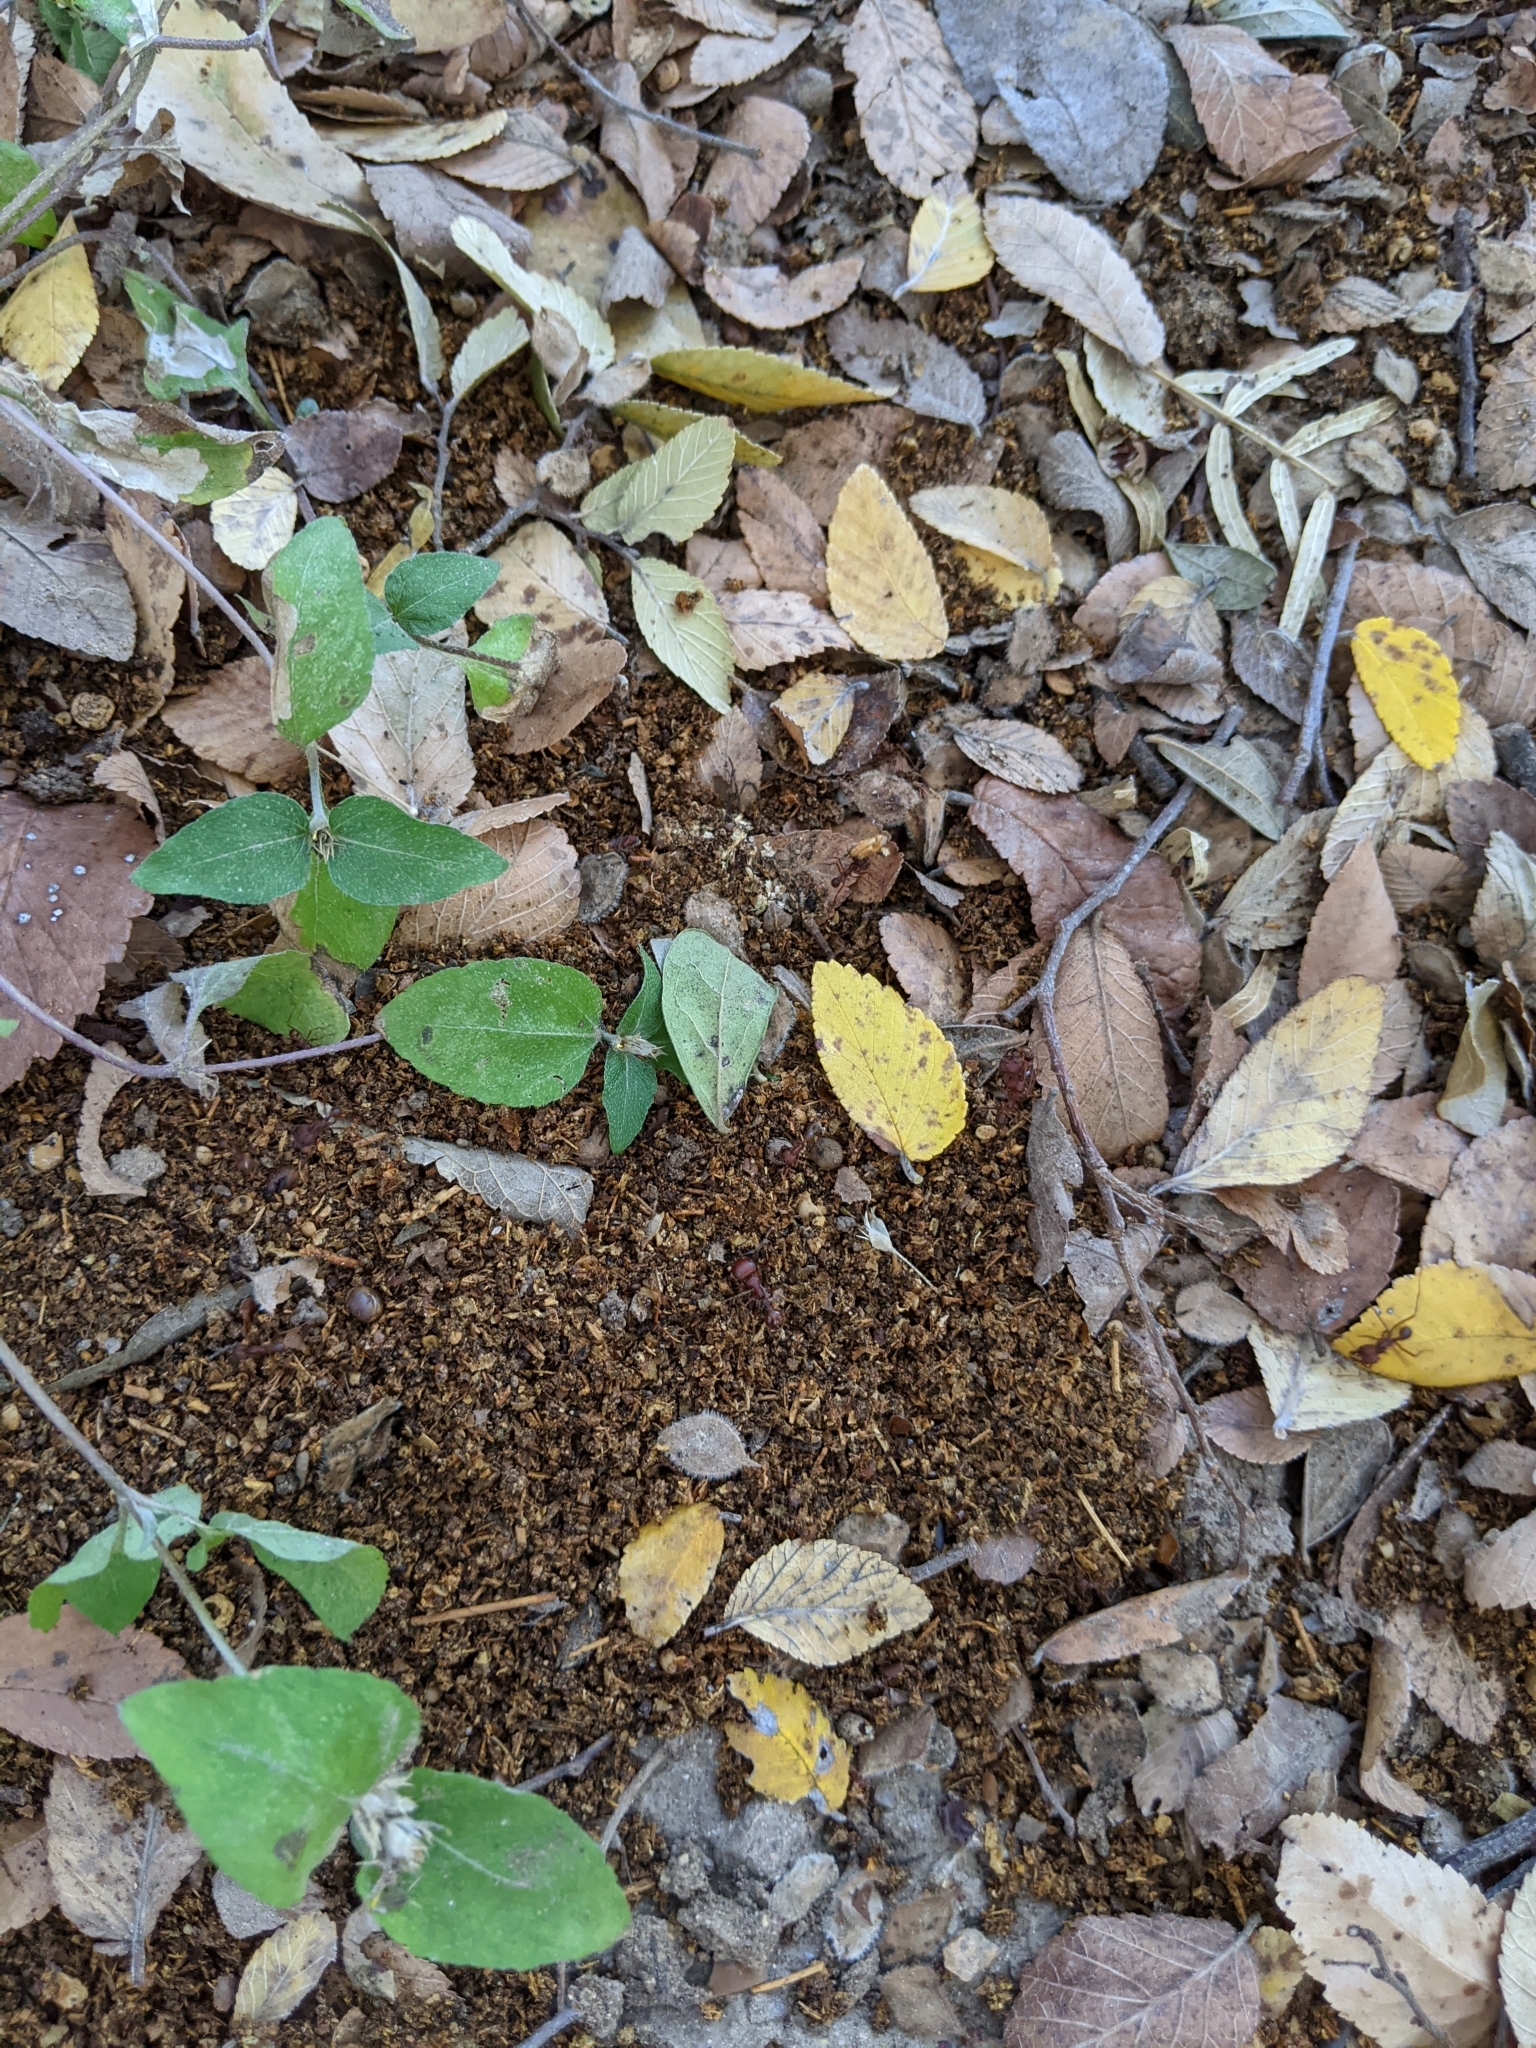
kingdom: Animalia
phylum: Arthropoda
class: Insecta
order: Hymenoptera
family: Formicidae
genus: Atta
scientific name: Atta texana
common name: Texas leafcutting ant
